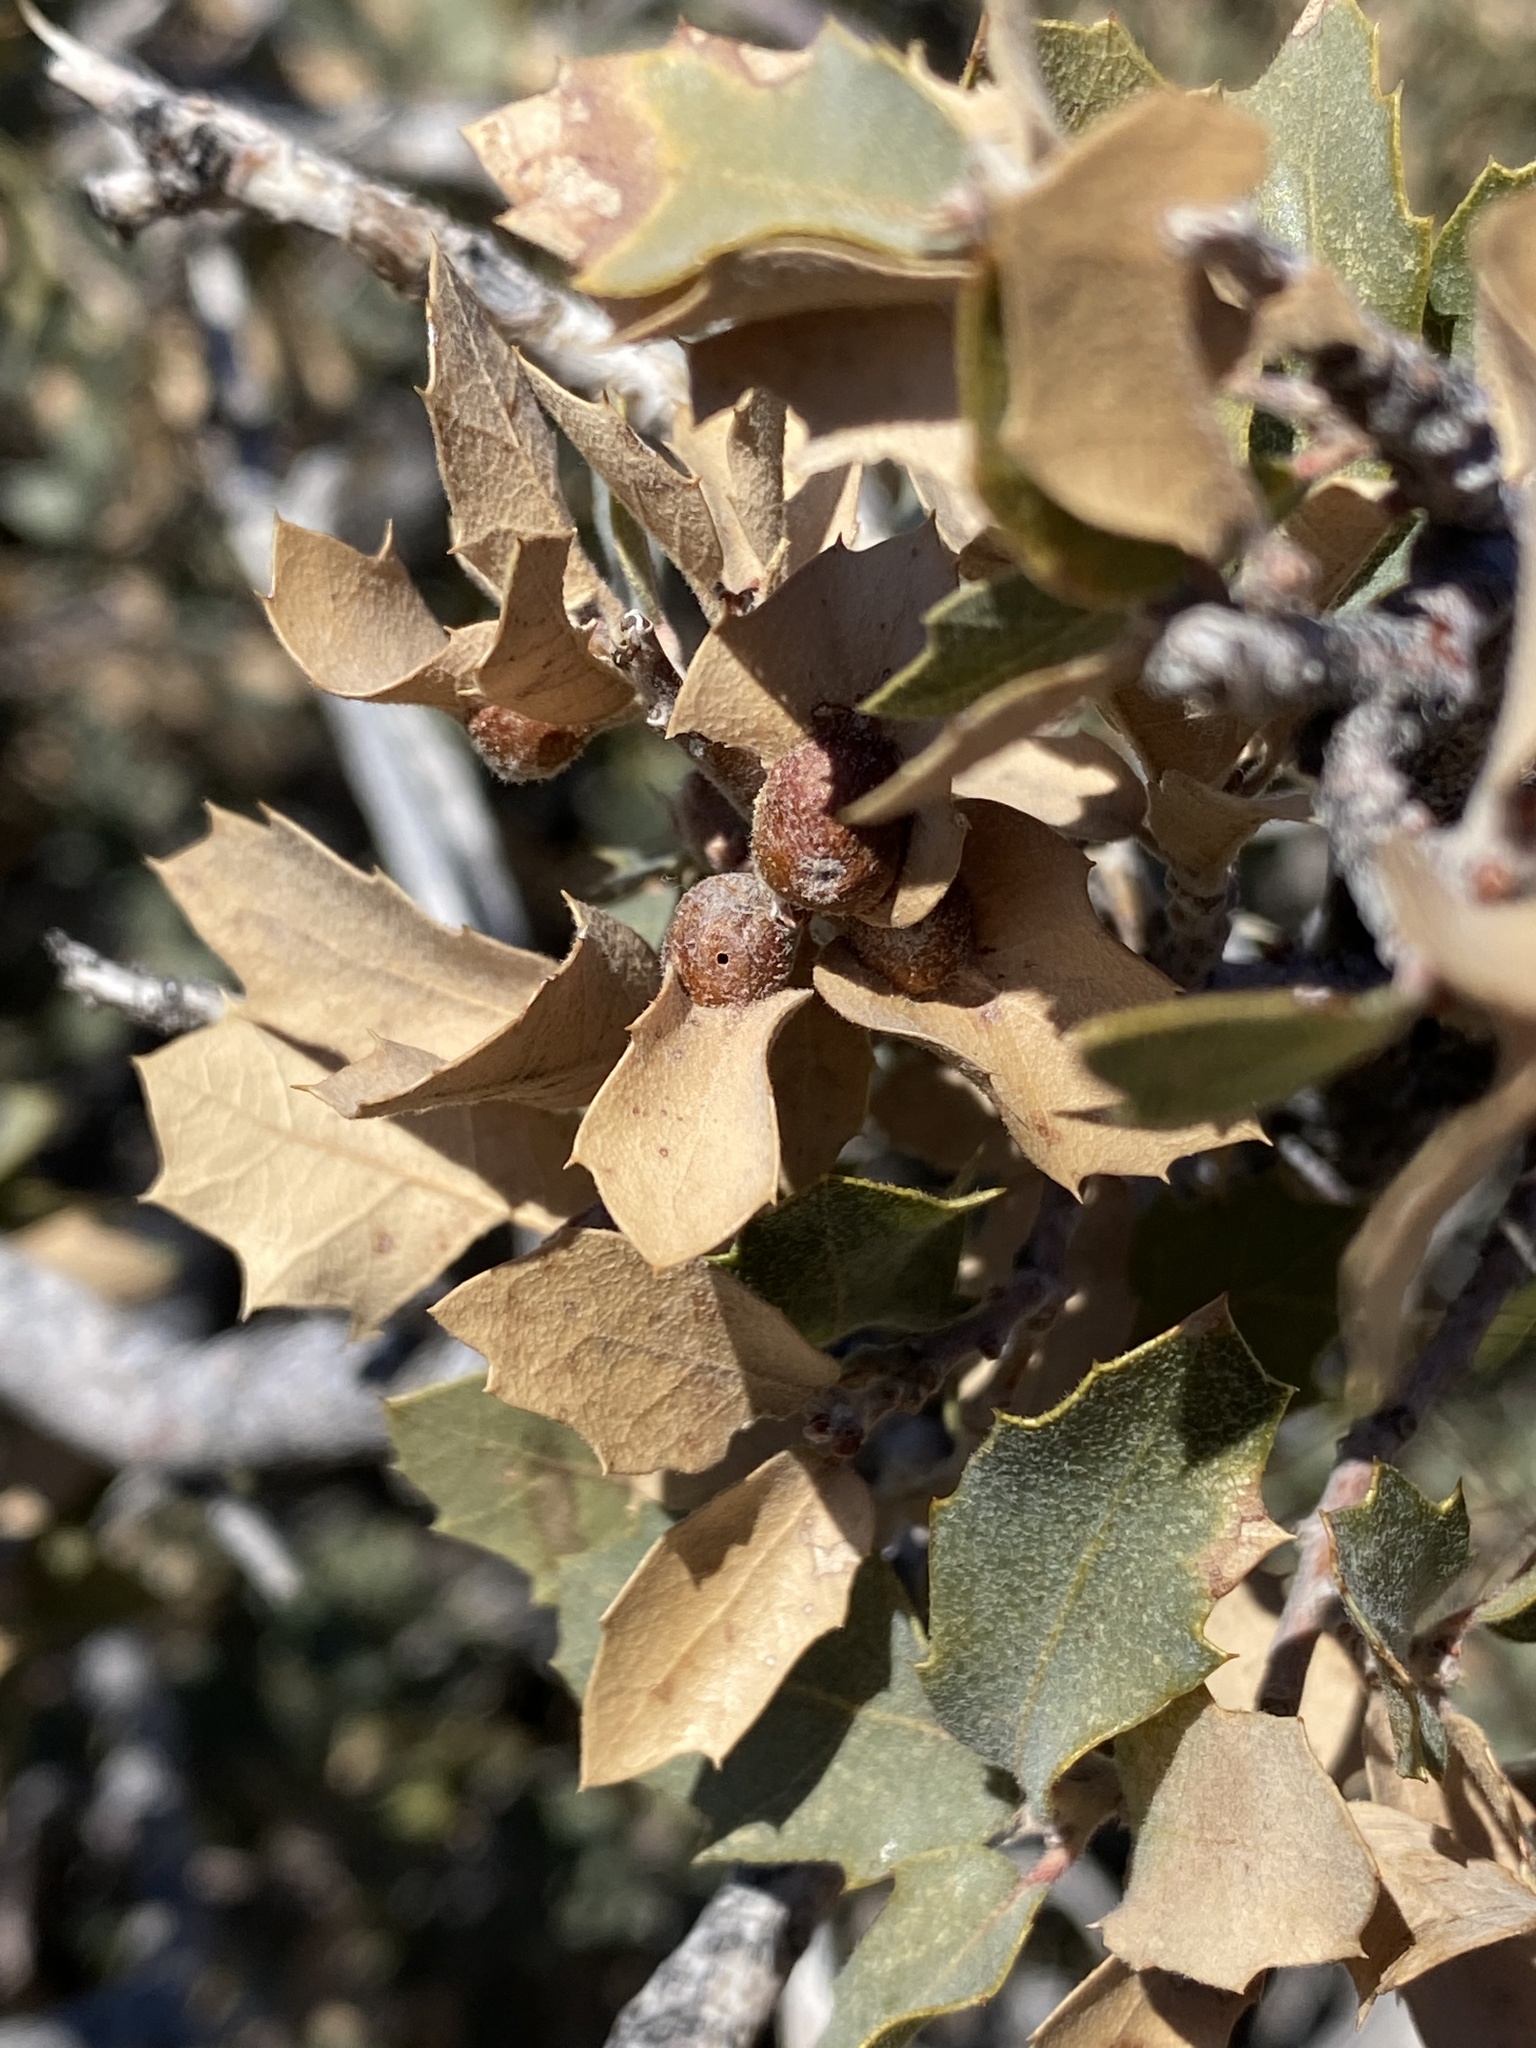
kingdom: Animalia
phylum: Arthropoda
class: Insecta
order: Hymenoptera
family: Cynipidae
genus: Andricus
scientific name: Andricus
